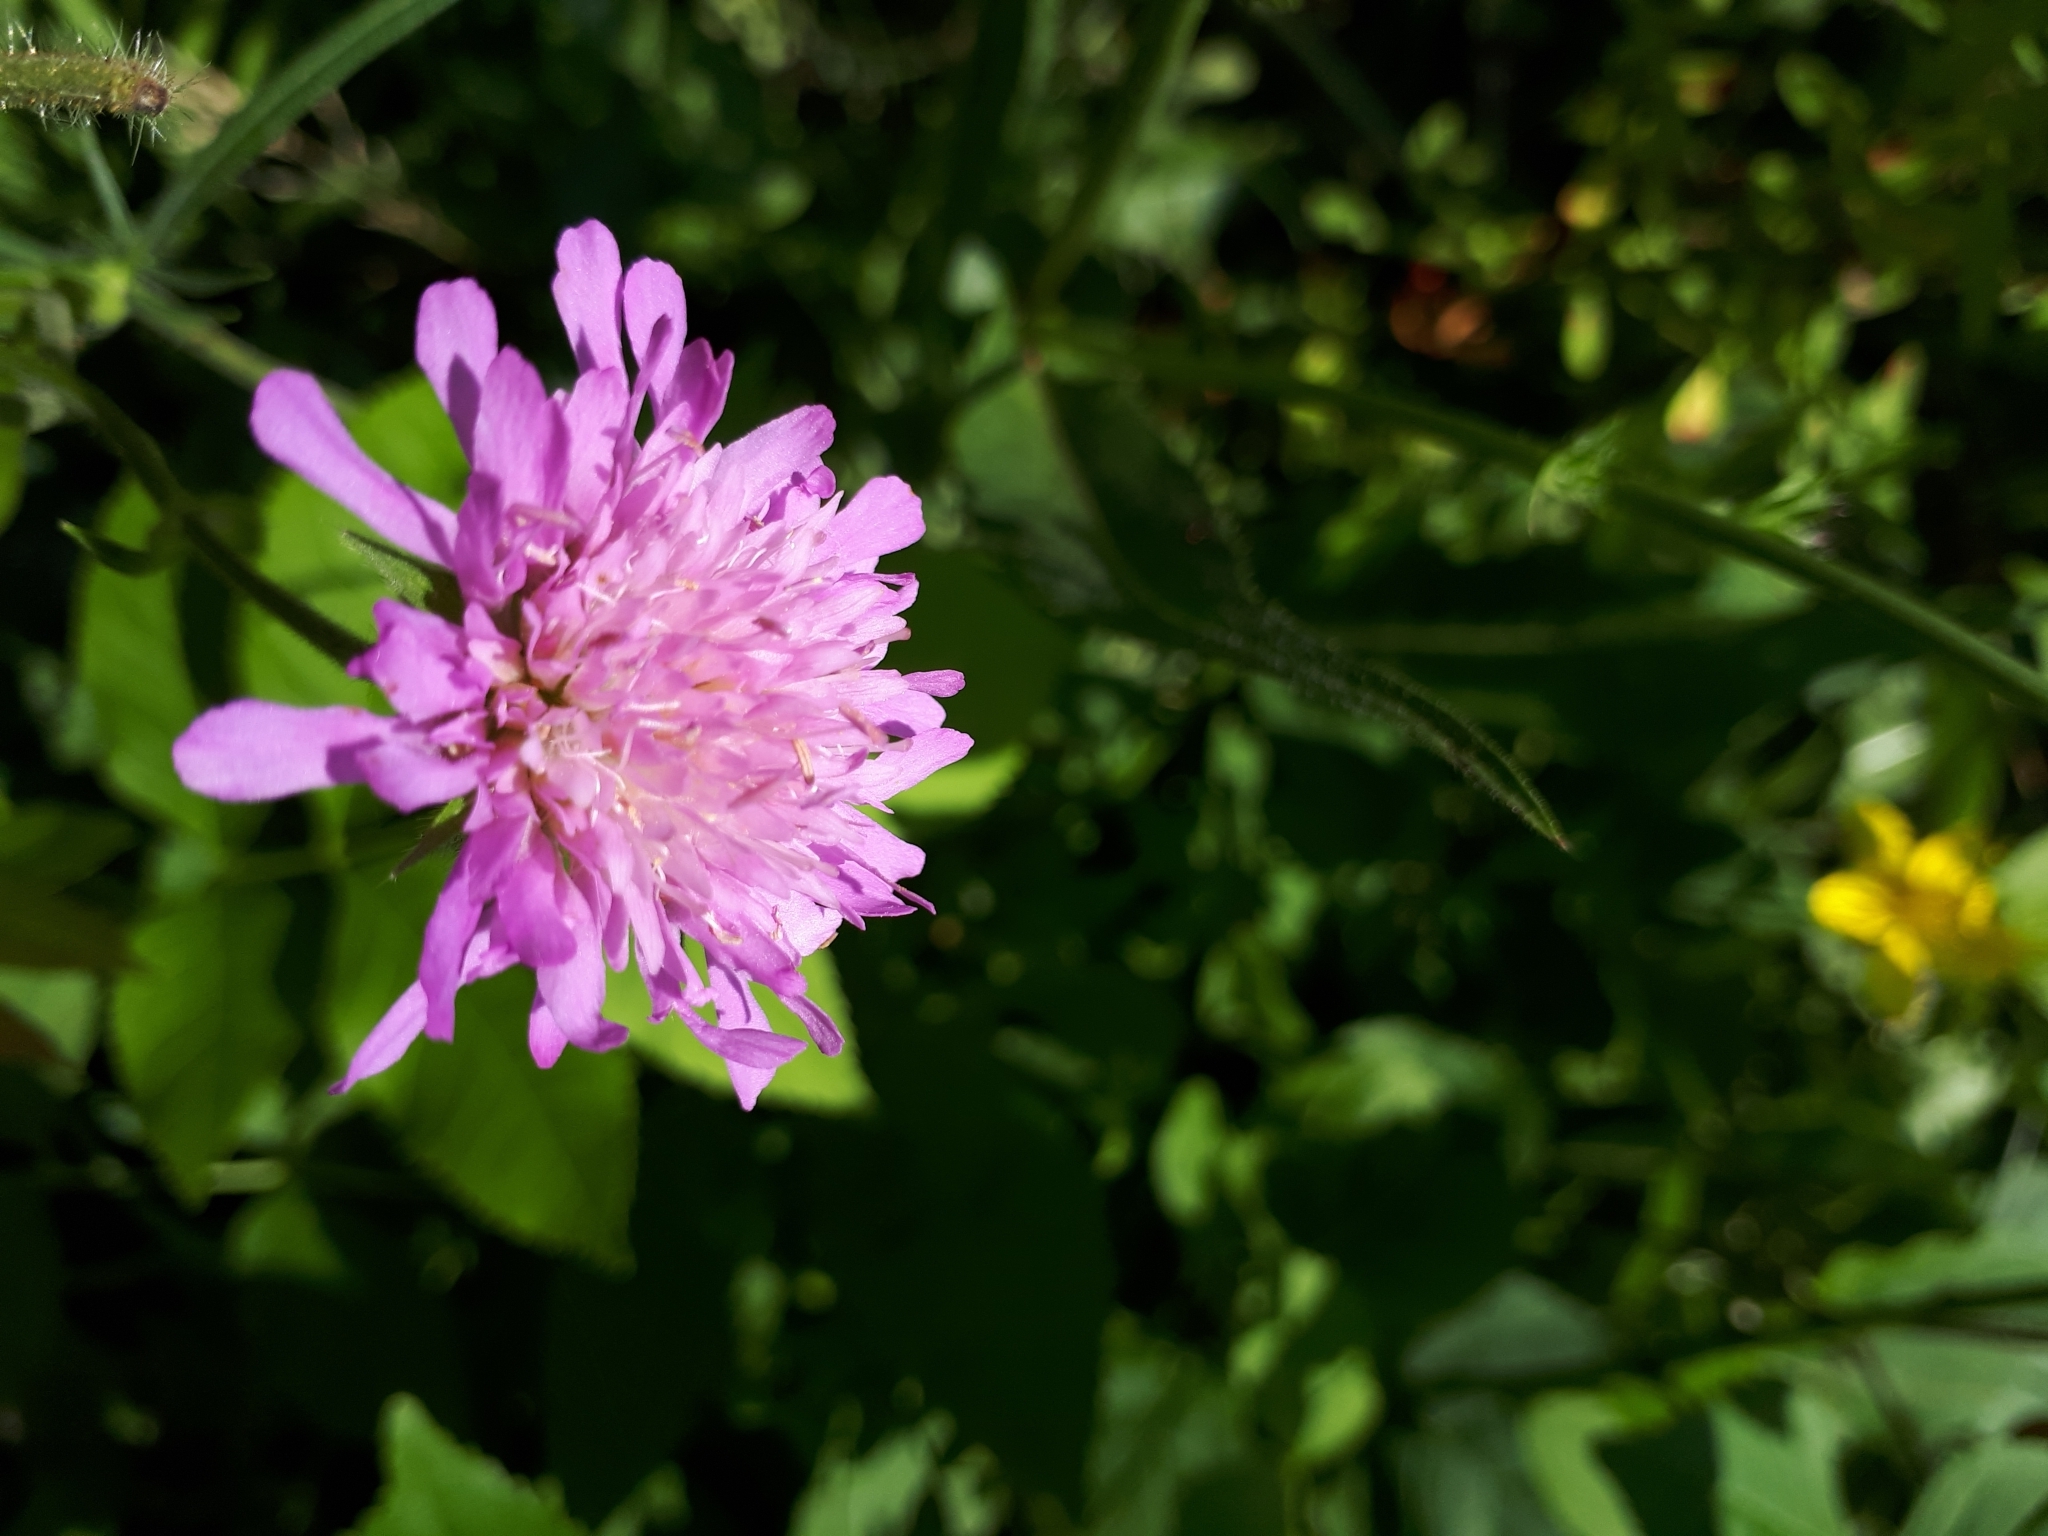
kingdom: Plantae
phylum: Tracheophyta
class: Magnoliopsida
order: Dipsacales
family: Caprifoliaceae
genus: Knautia
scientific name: Knautia arvensis
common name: Field scabiosa
